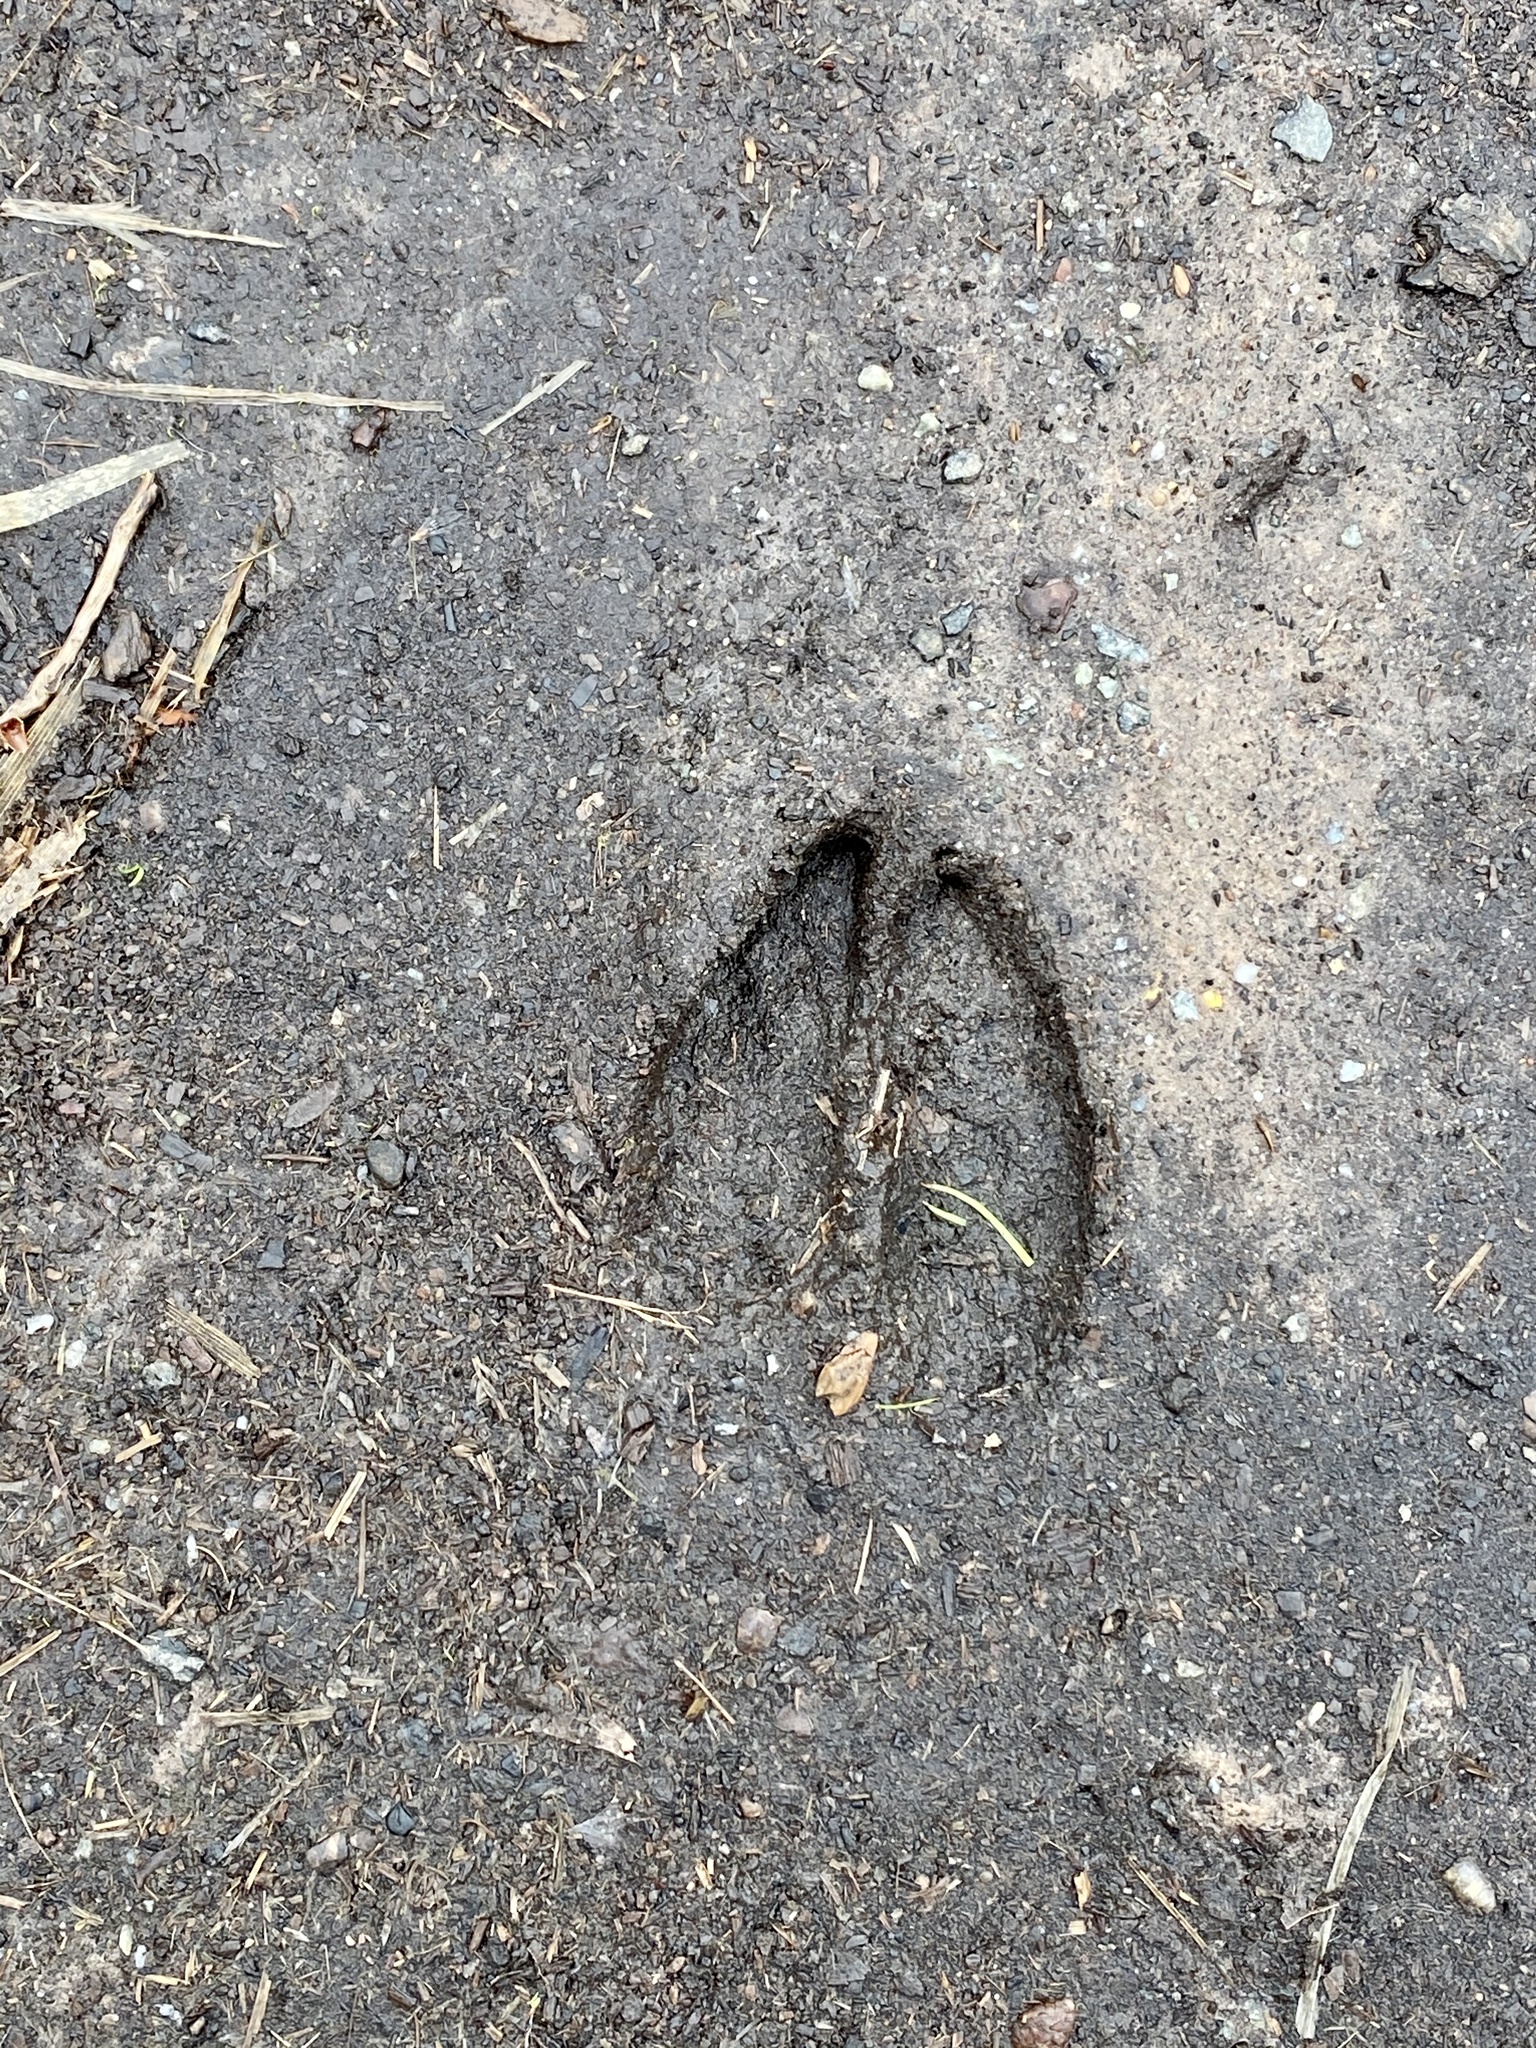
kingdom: Animalia
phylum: Chordata
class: Mammalia
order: Artiodactyla
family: Cervidae
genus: Odocoileus
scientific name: Odocoileus virginianus
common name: White-tailed deer
